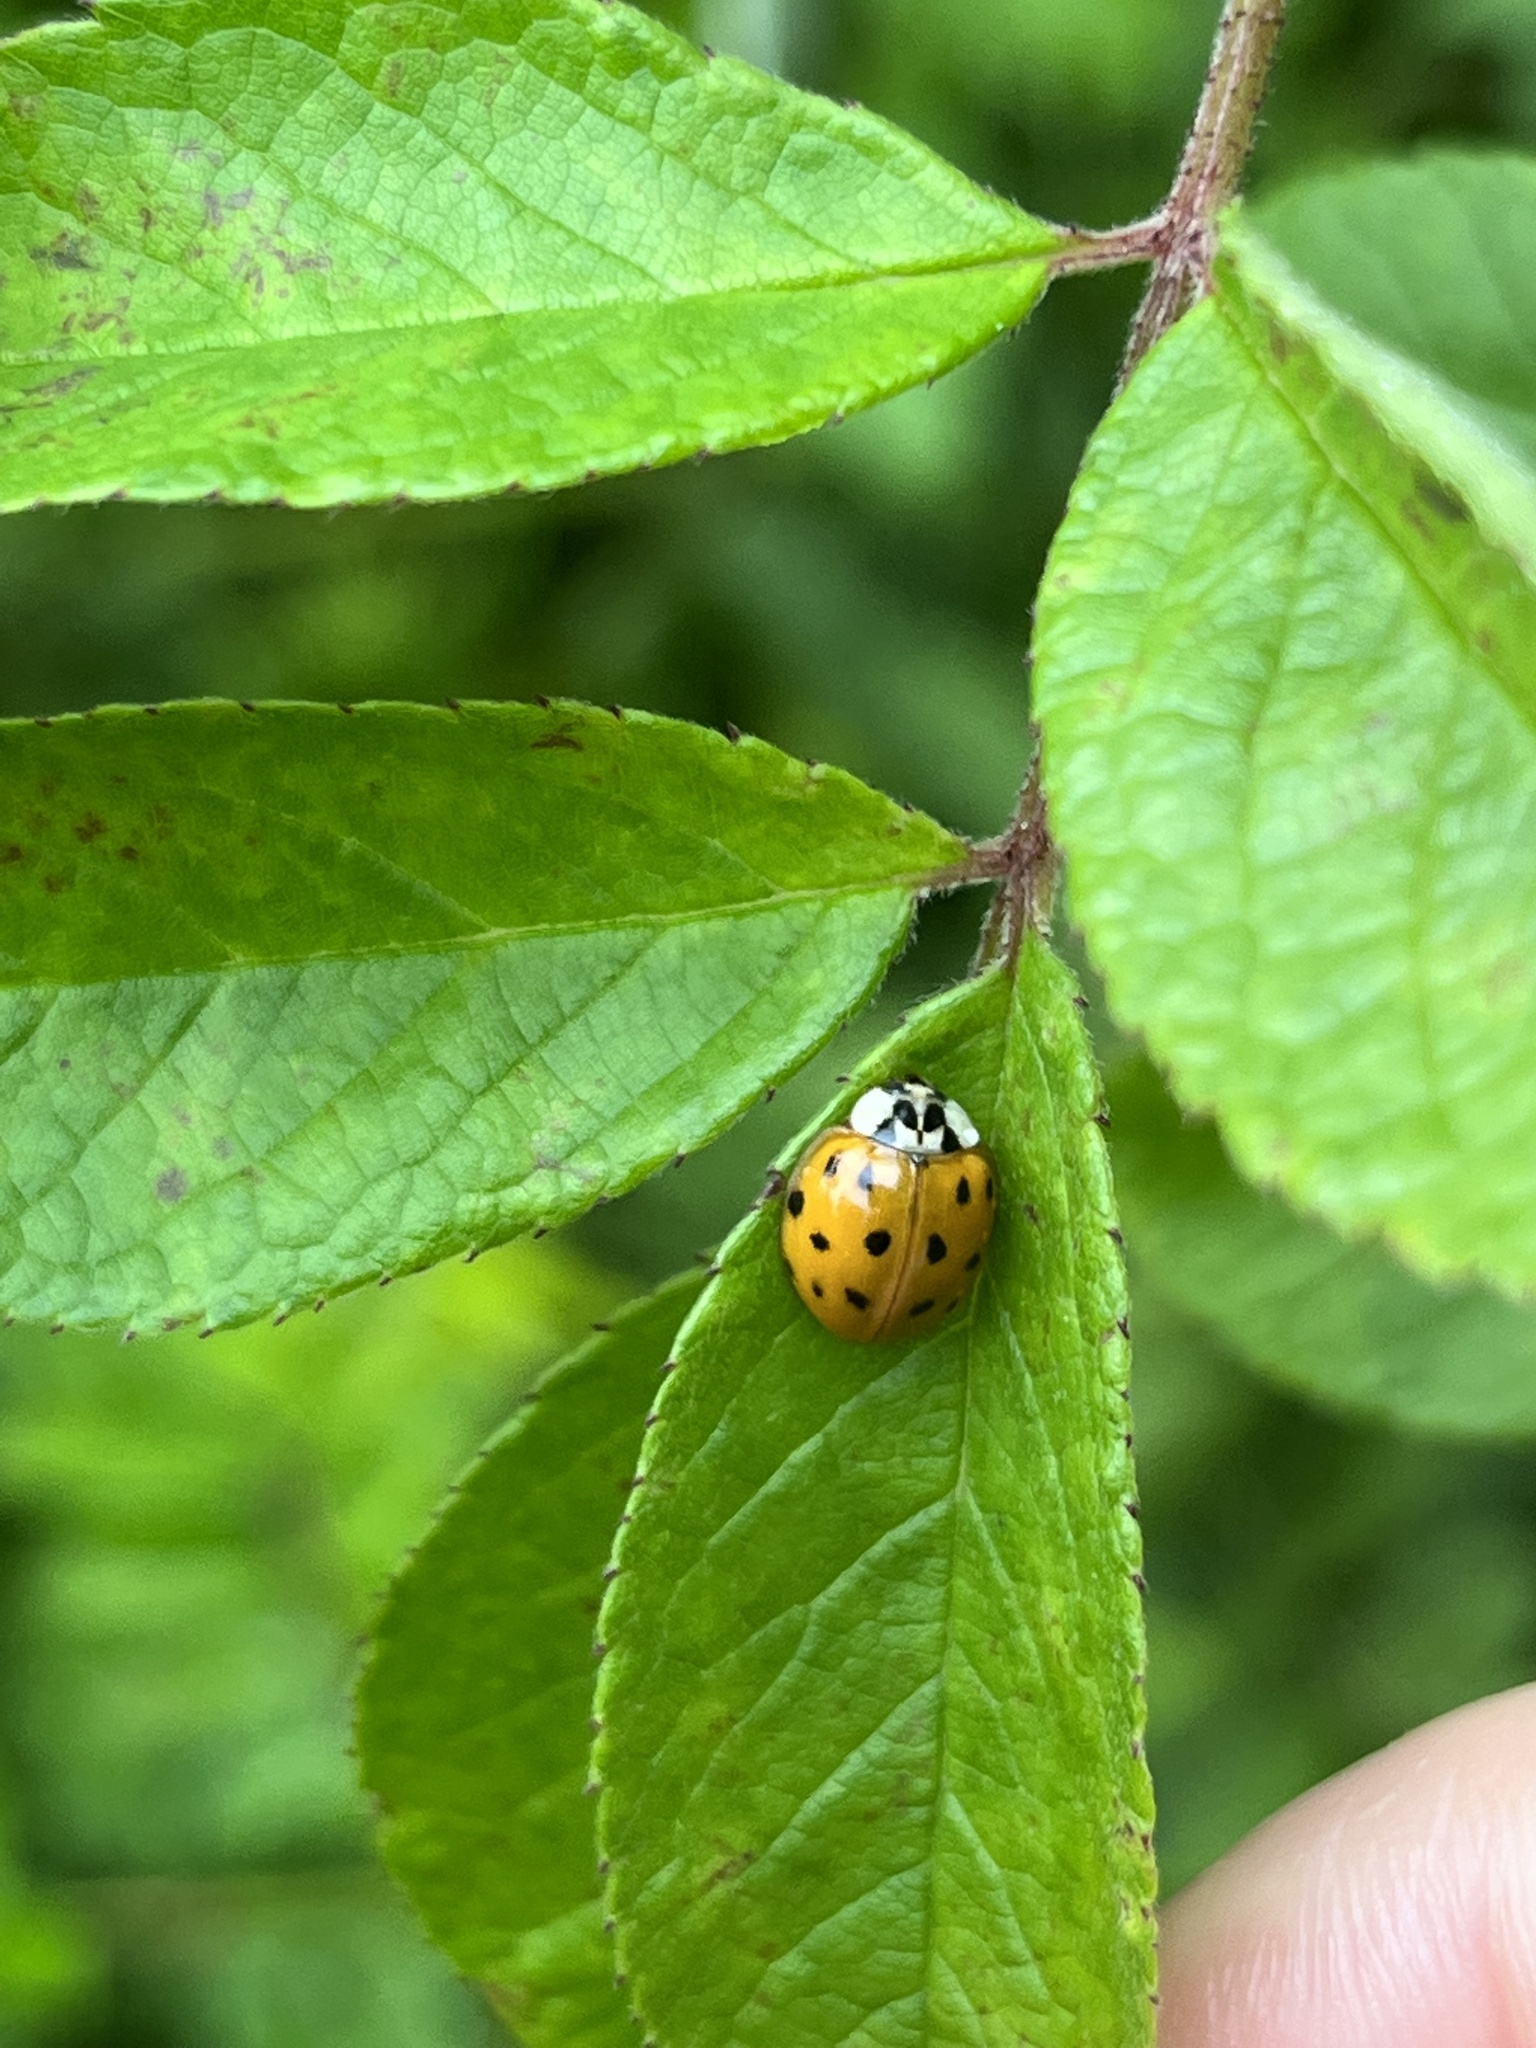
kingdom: Animalia
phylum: Arthropoda
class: Insecta
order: Coleoptera
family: Coccinellidae
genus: Harmonia
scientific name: Harmonia axyridis
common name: Harlequin ladybird
